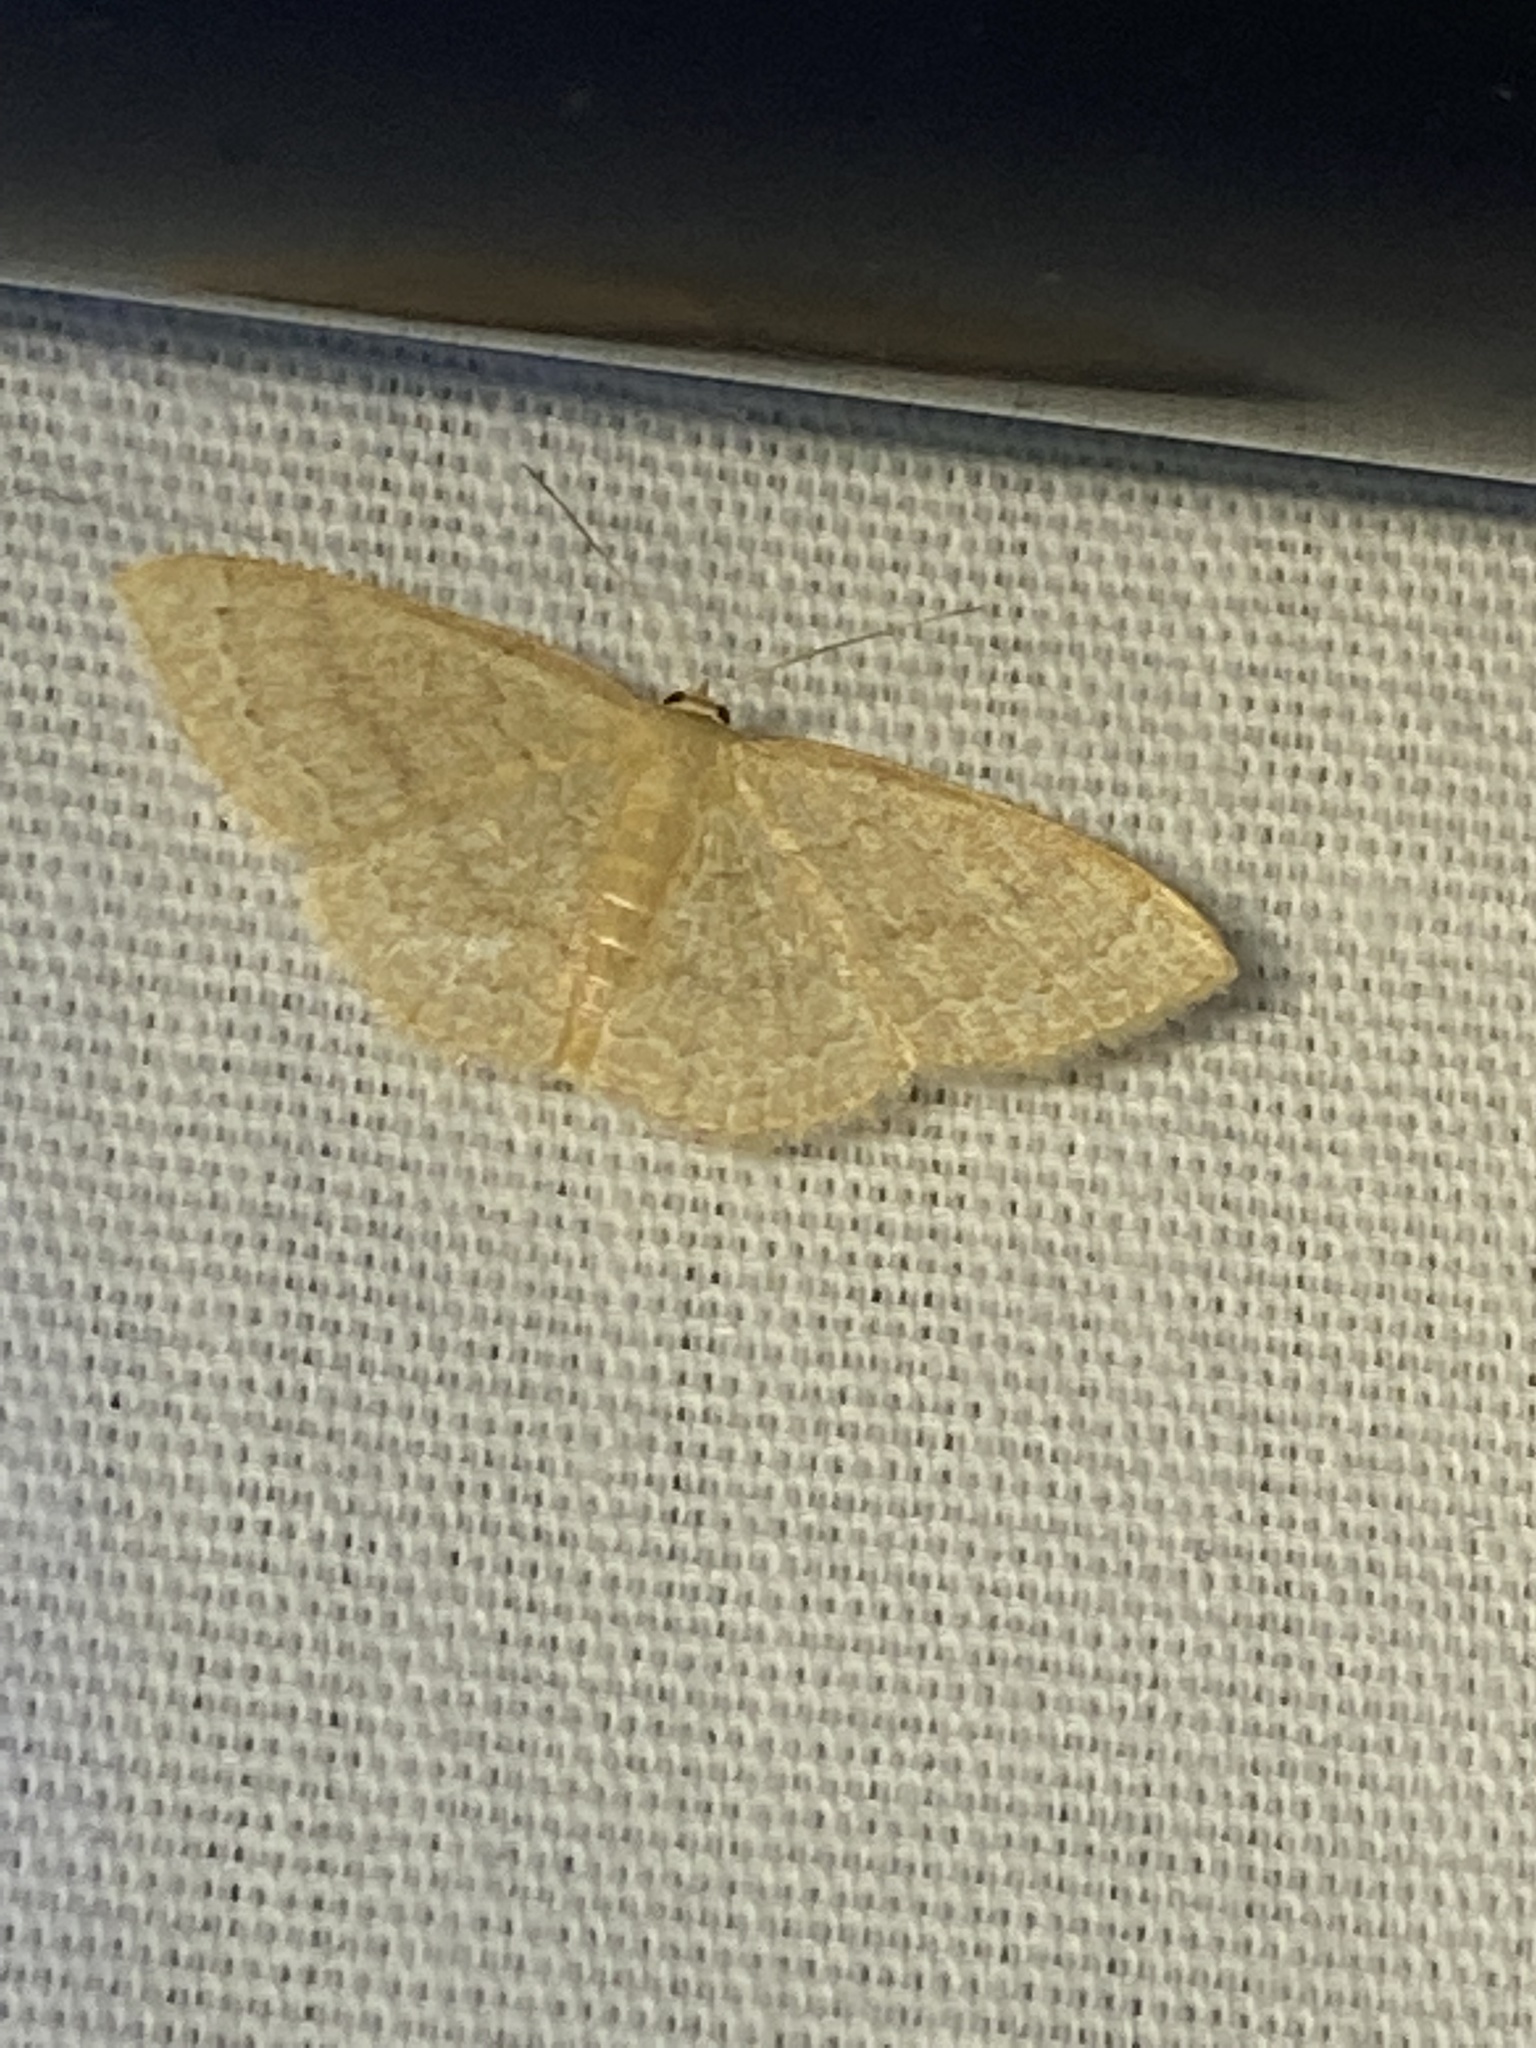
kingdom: Animalia
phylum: Arthropoda
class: Insecta
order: Lepidoptera
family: Geometridae
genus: Pleuroprucha
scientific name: Pleuroprucha insulsaria
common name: Common tan wave
